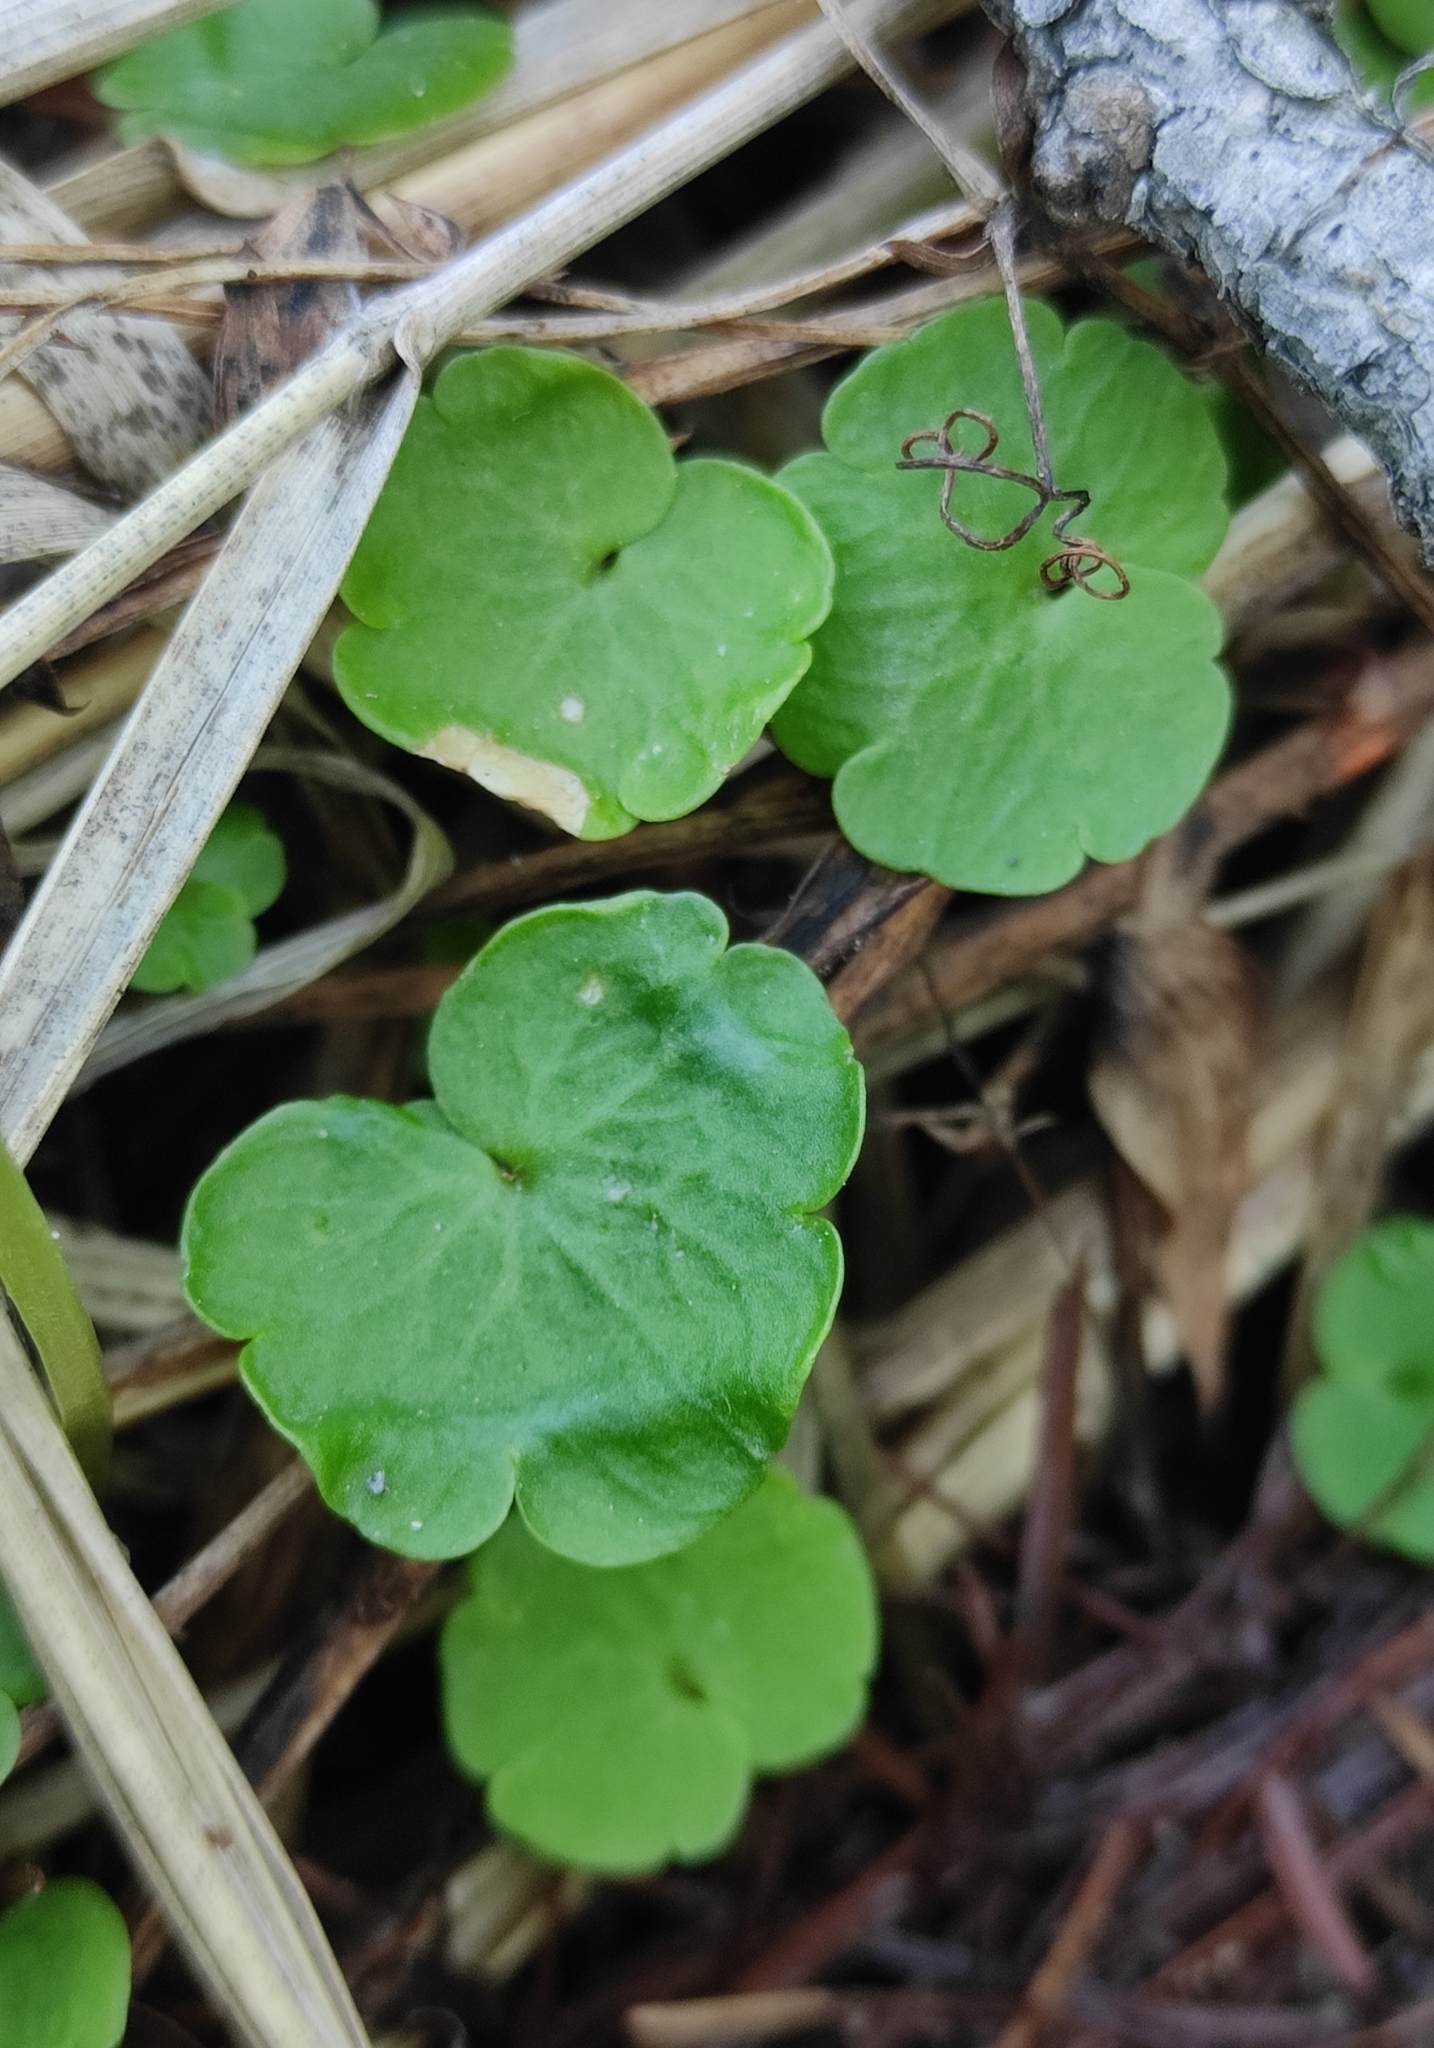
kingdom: Plantae
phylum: Tracheophyta
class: Magnoliopsida
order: Saxifragales
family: Saxifragaceae
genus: Chrysosplenium
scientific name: Chrysosplenium sibiricum
